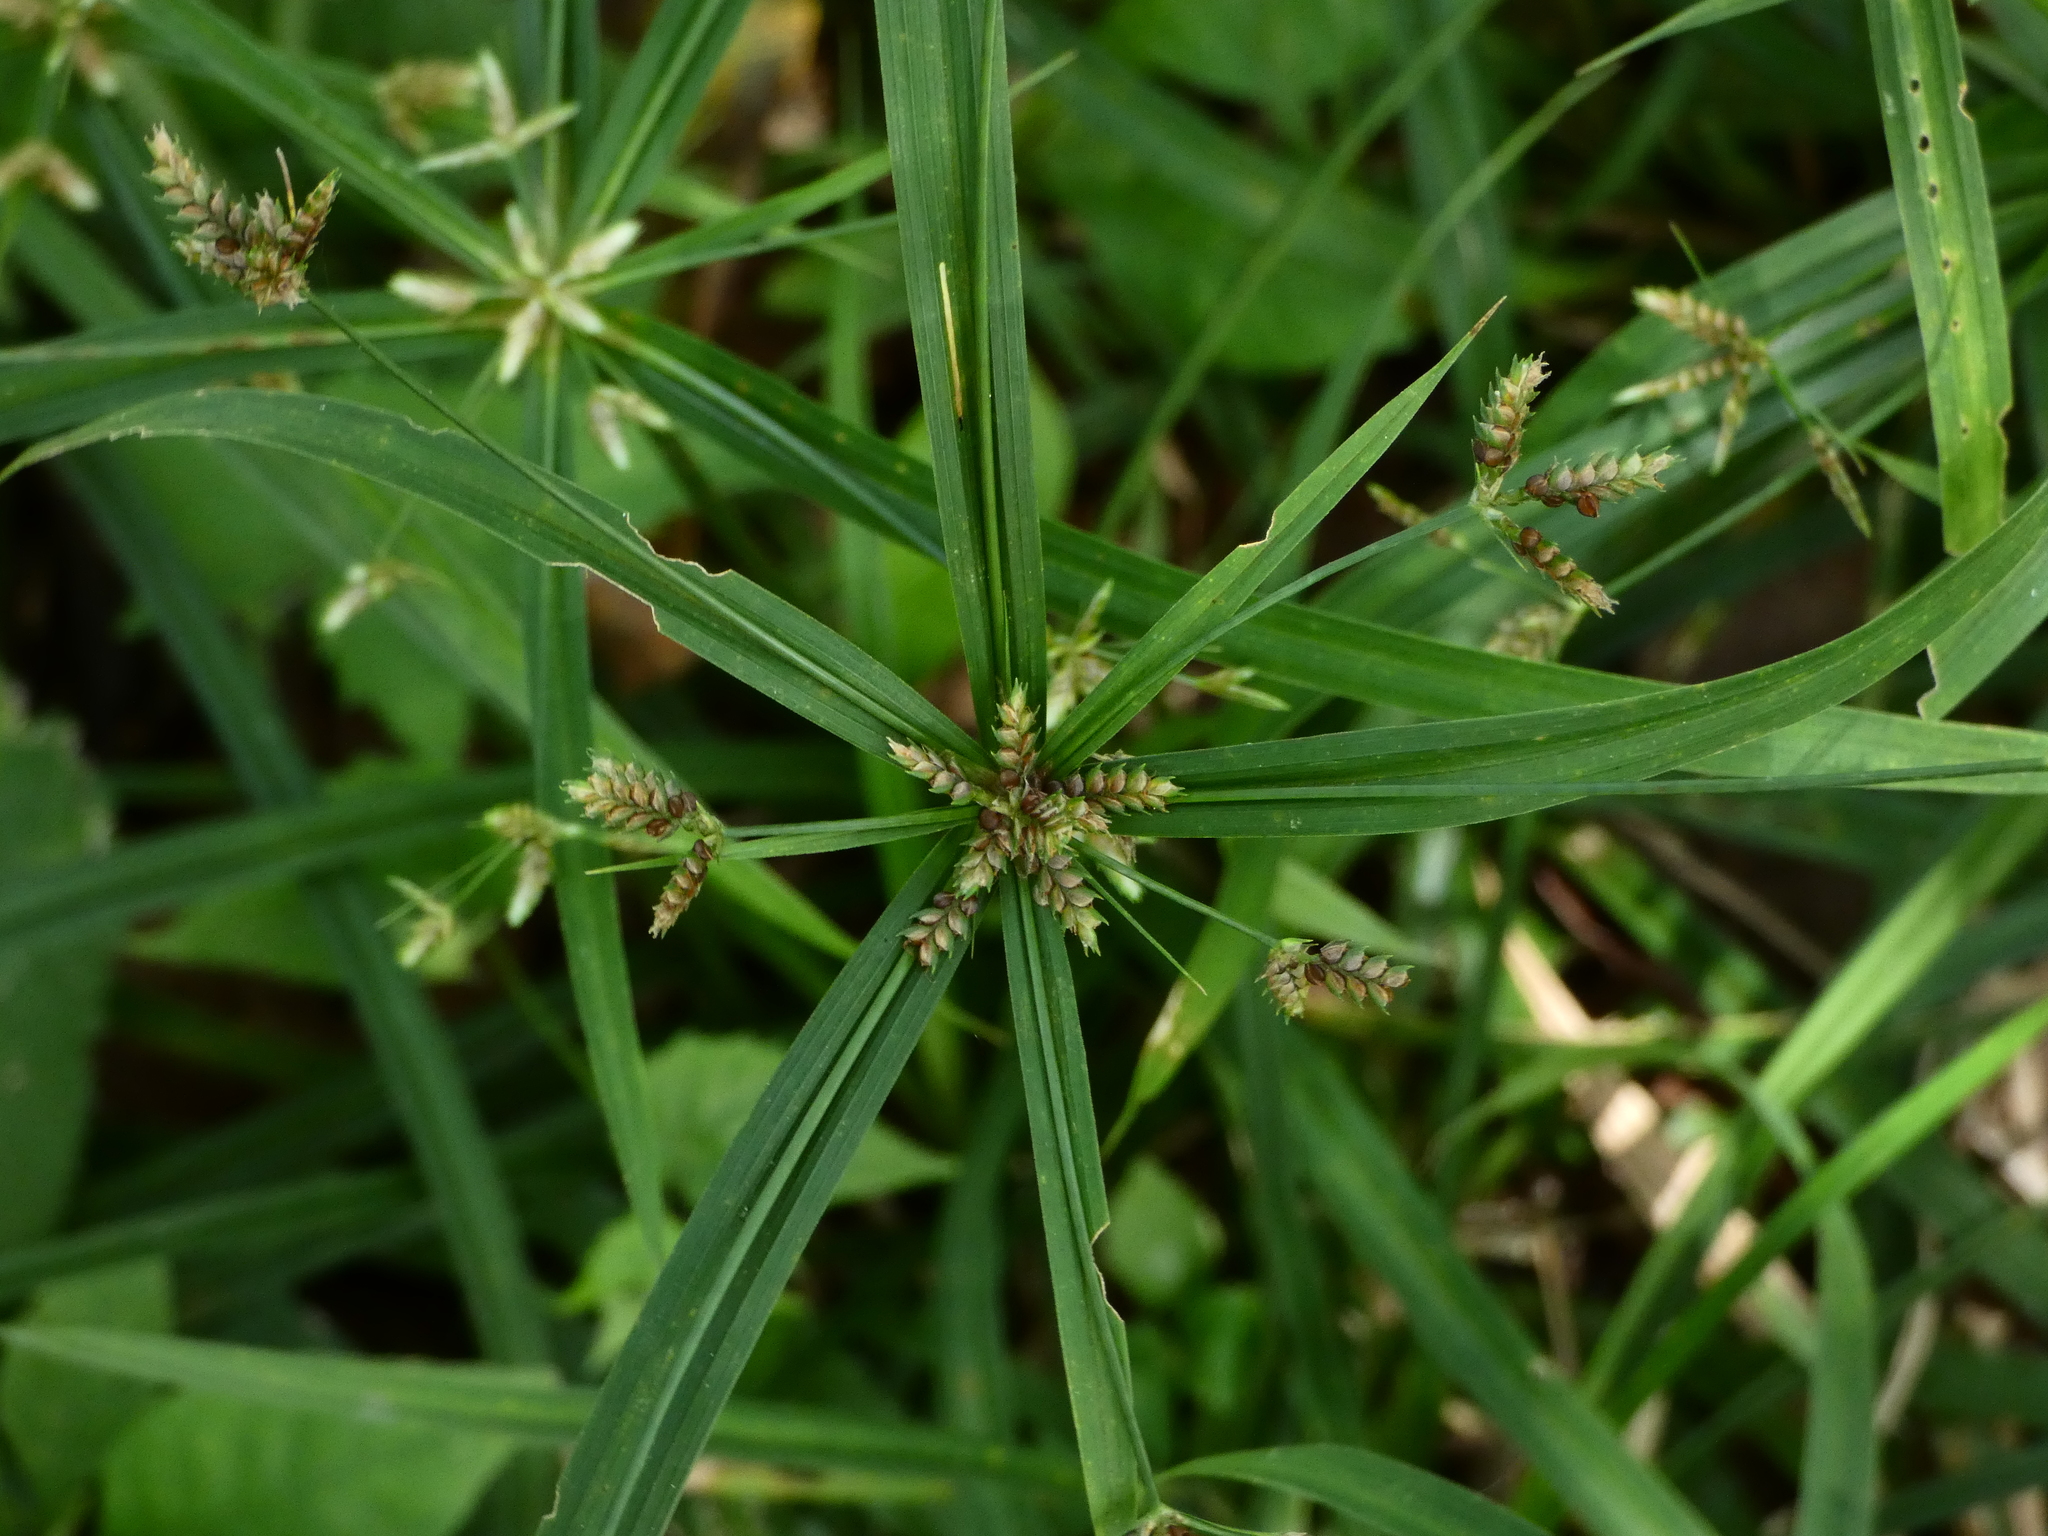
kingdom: Plantae
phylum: Tracheophyta
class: Liliopsida
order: Poales
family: Cyperaceae
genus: Cyperus
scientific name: Cyperus laxus
